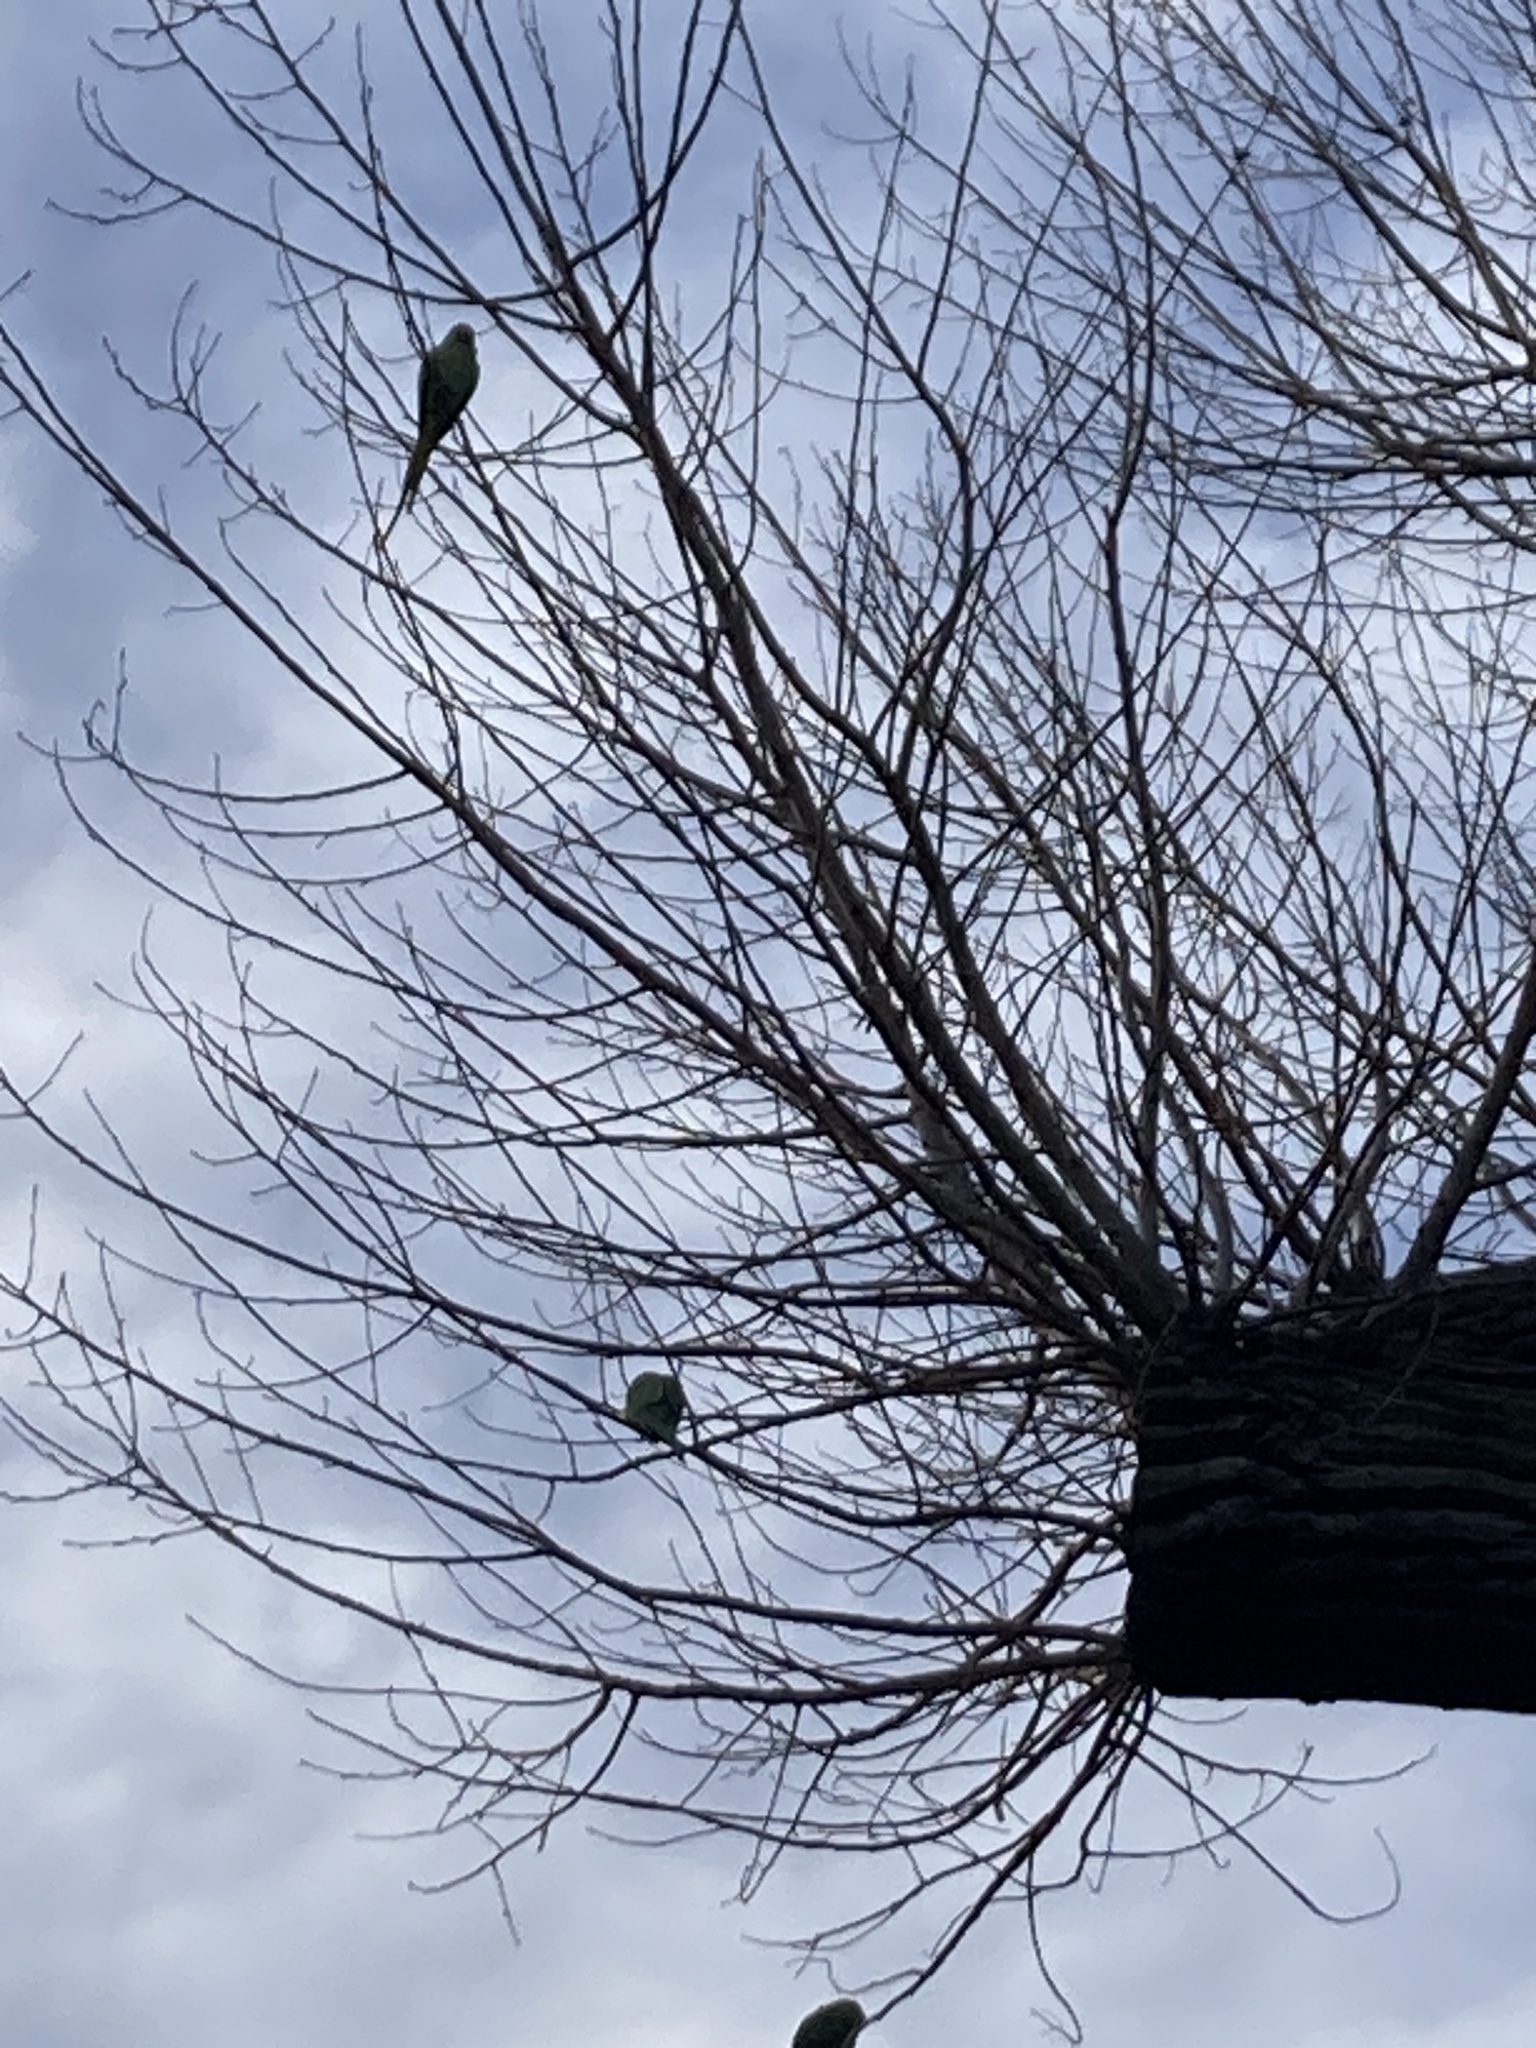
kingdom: Animalia
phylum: Chordata
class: Aves
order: Psittaciformes
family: Psittacidae
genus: Psittacula
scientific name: Psittacula krameri
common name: Rose-ringed parakeet
